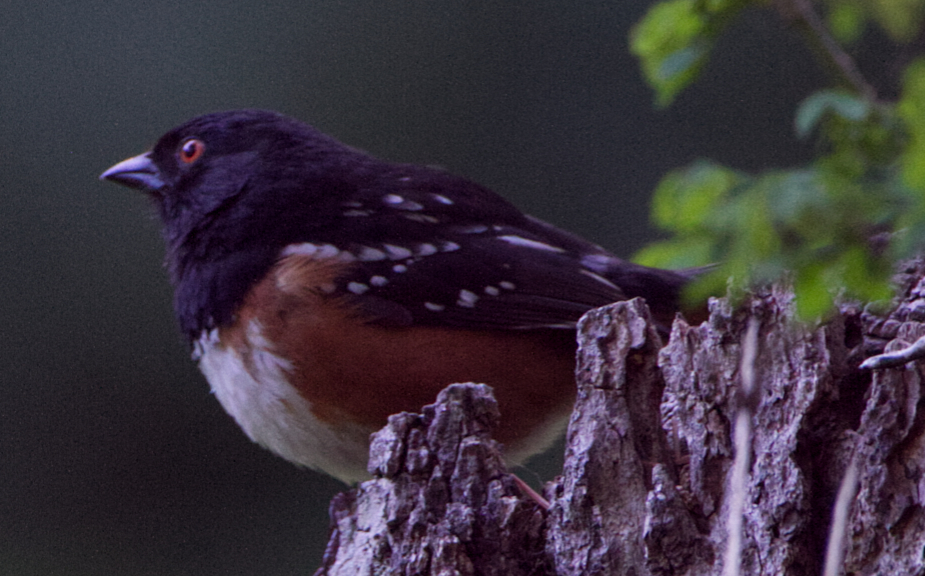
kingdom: Animalia
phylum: Chordata
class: Aves
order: Passeriformes
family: Passerellidae
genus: Pipilo
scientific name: Pipilo maculatus
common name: Spotted towhee
